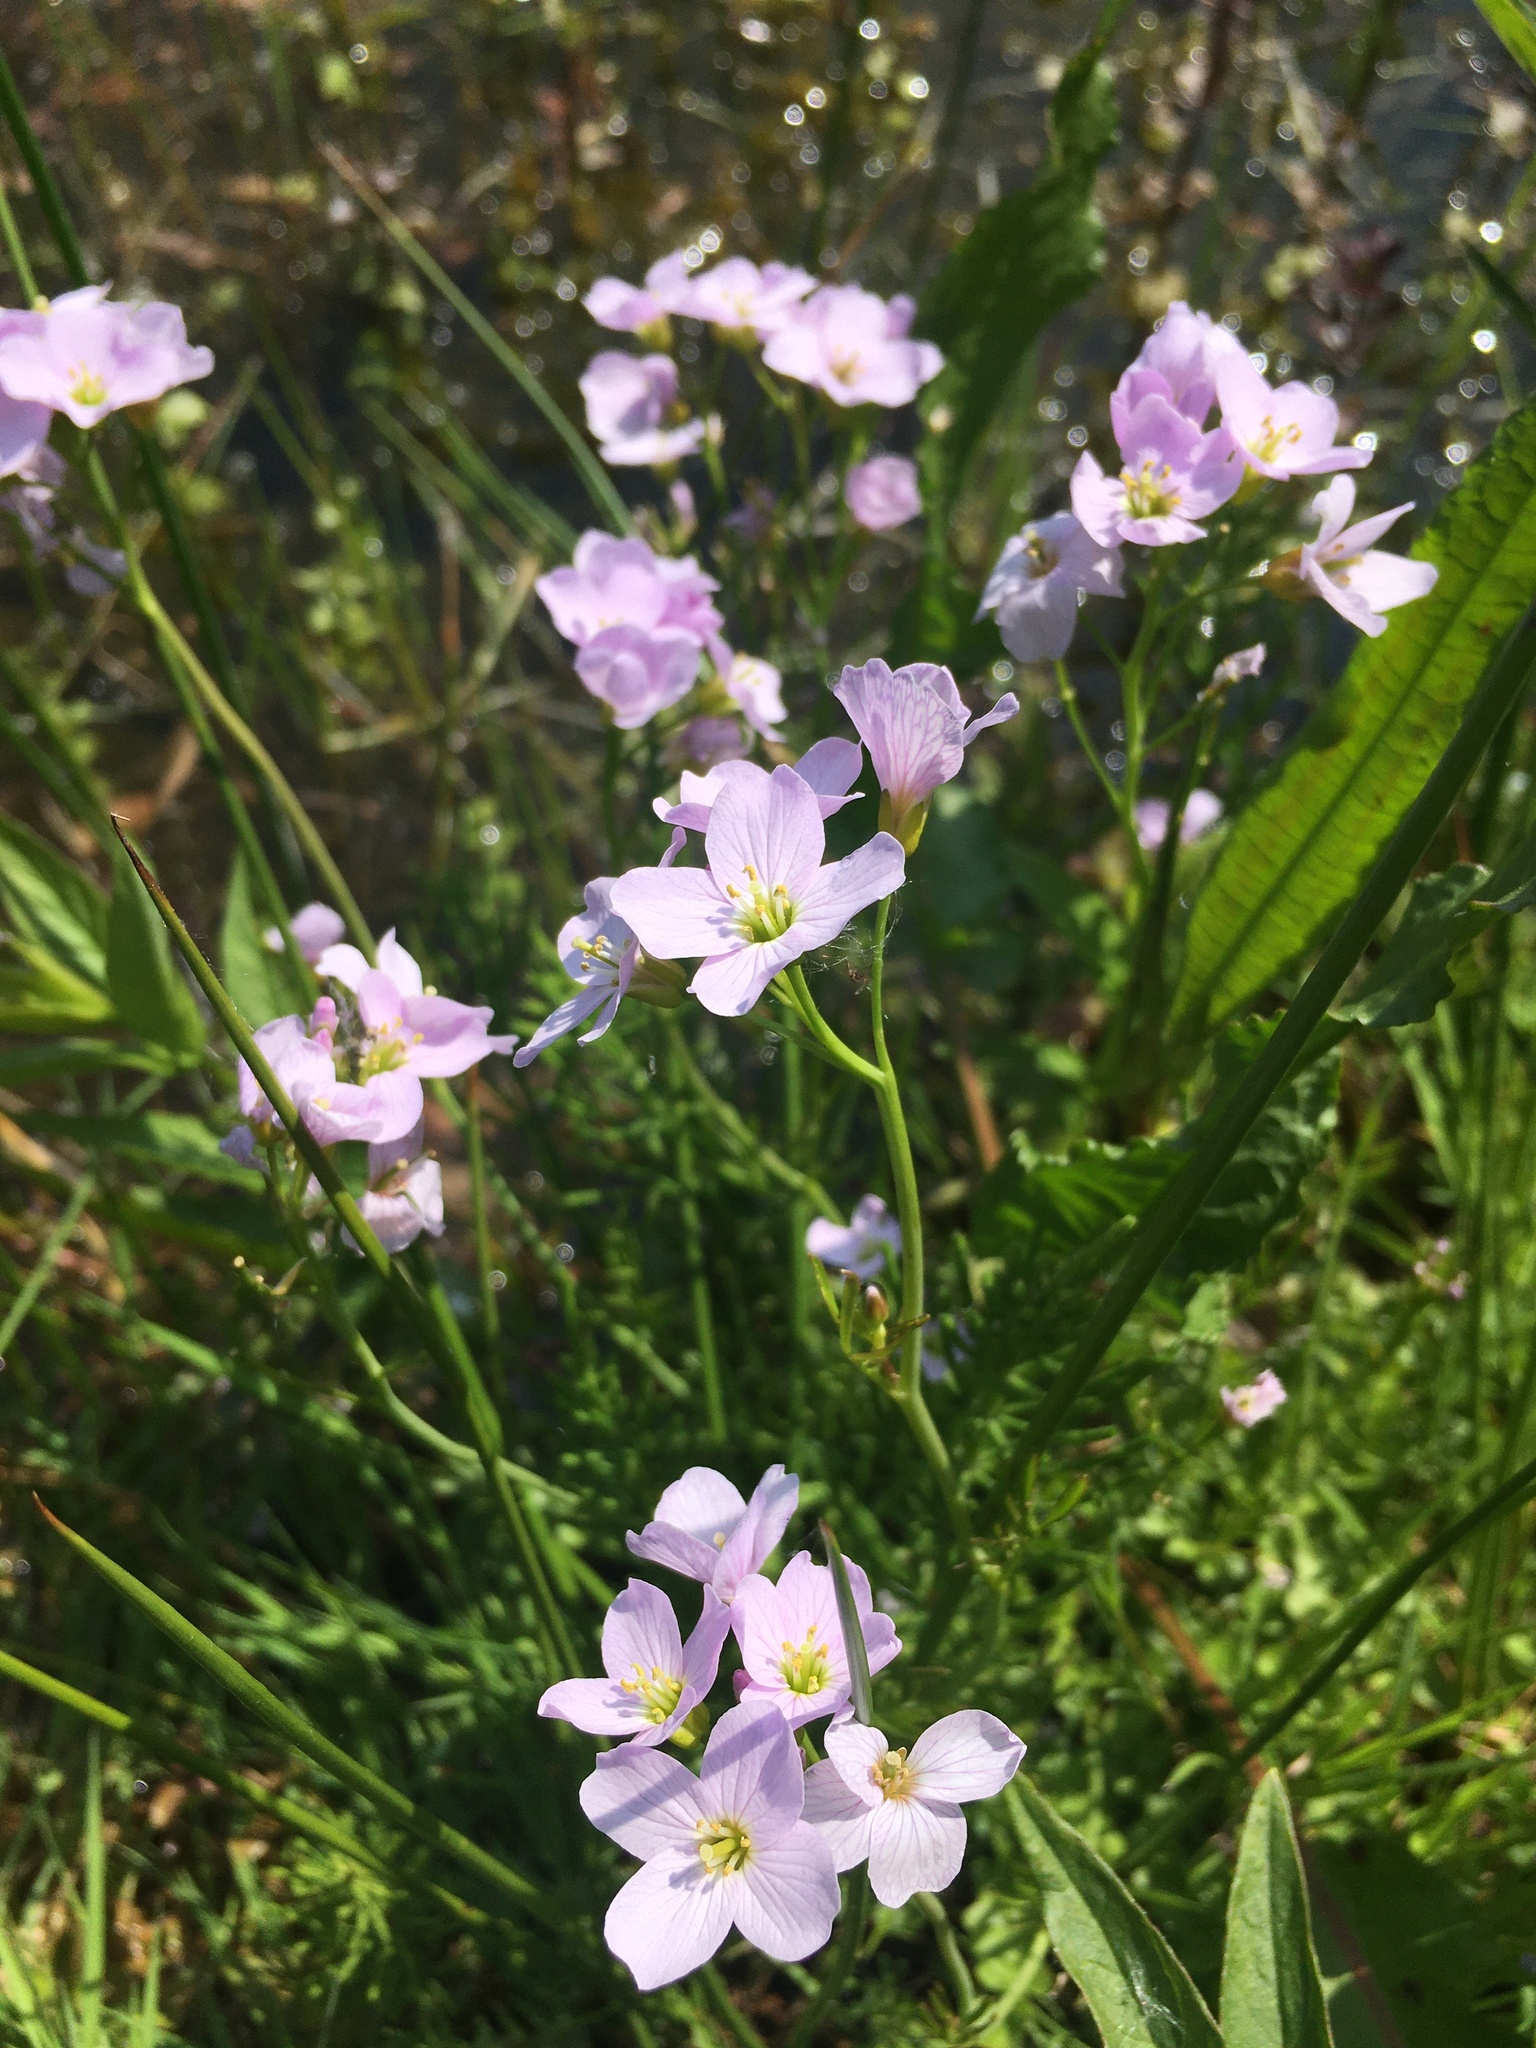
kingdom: Plantae
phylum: Tracheophyta
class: Magnoliopsida
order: Brassicales
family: Brassicaceae
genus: Cardamine
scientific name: Cardamine pratensis
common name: Cuckoo flower
